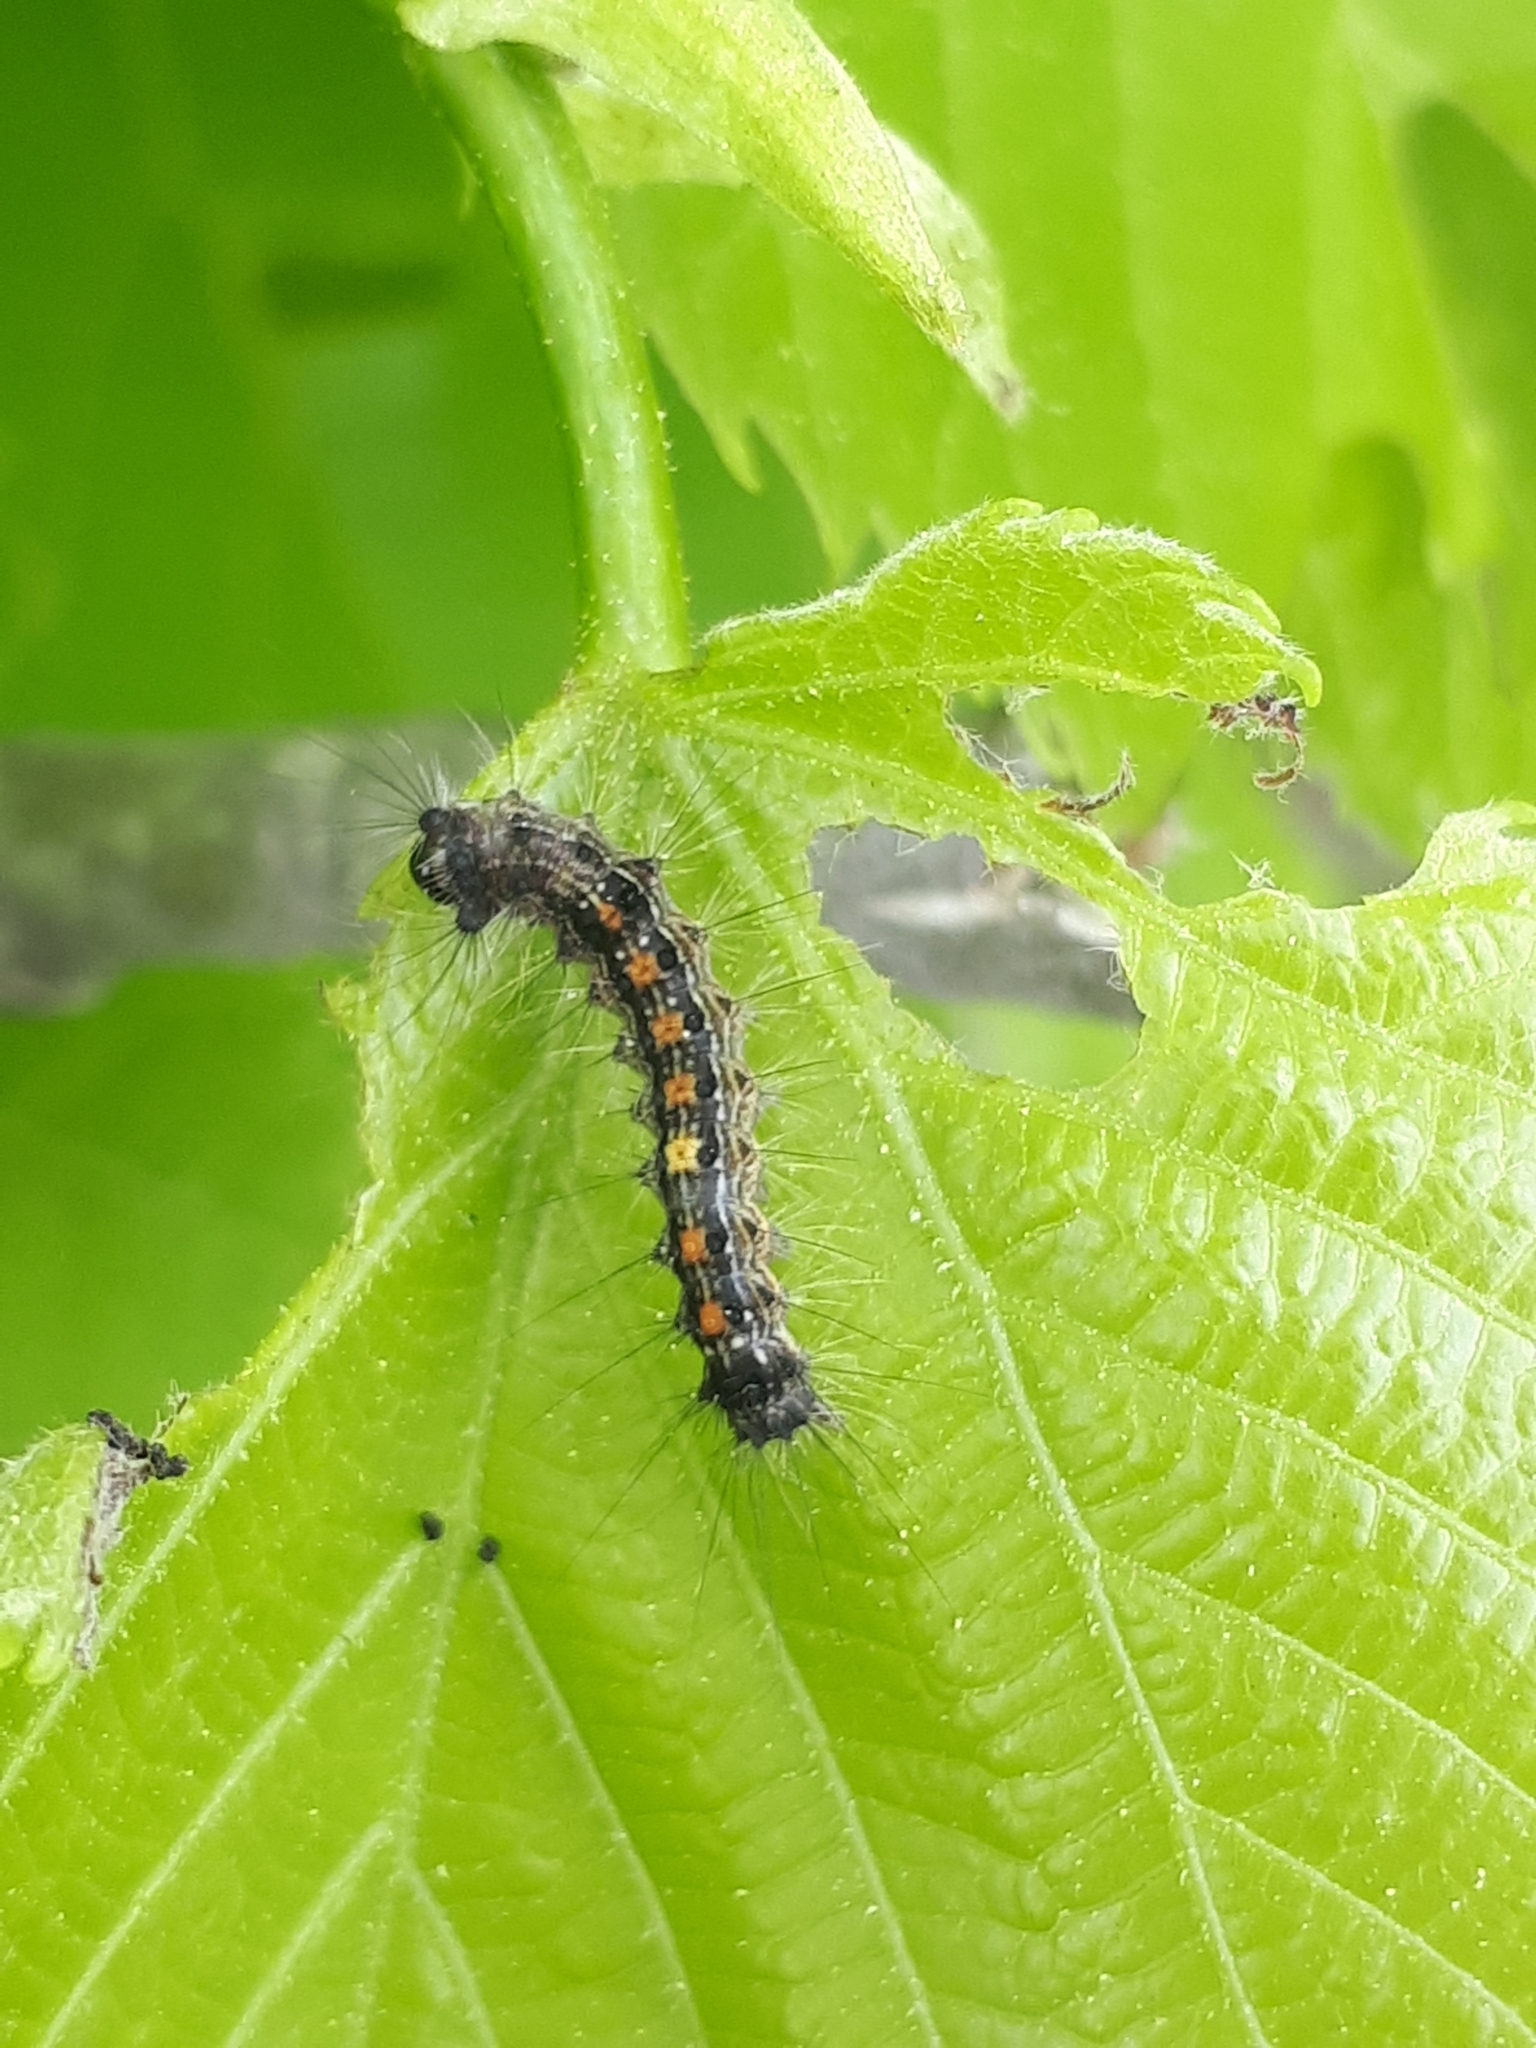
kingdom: Animalia
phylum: Arthropoda
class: Insecta
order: Lepidoptera
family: Erebidae
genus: Lymantria
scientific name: Lymantria dispar
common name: Gypsy moth
